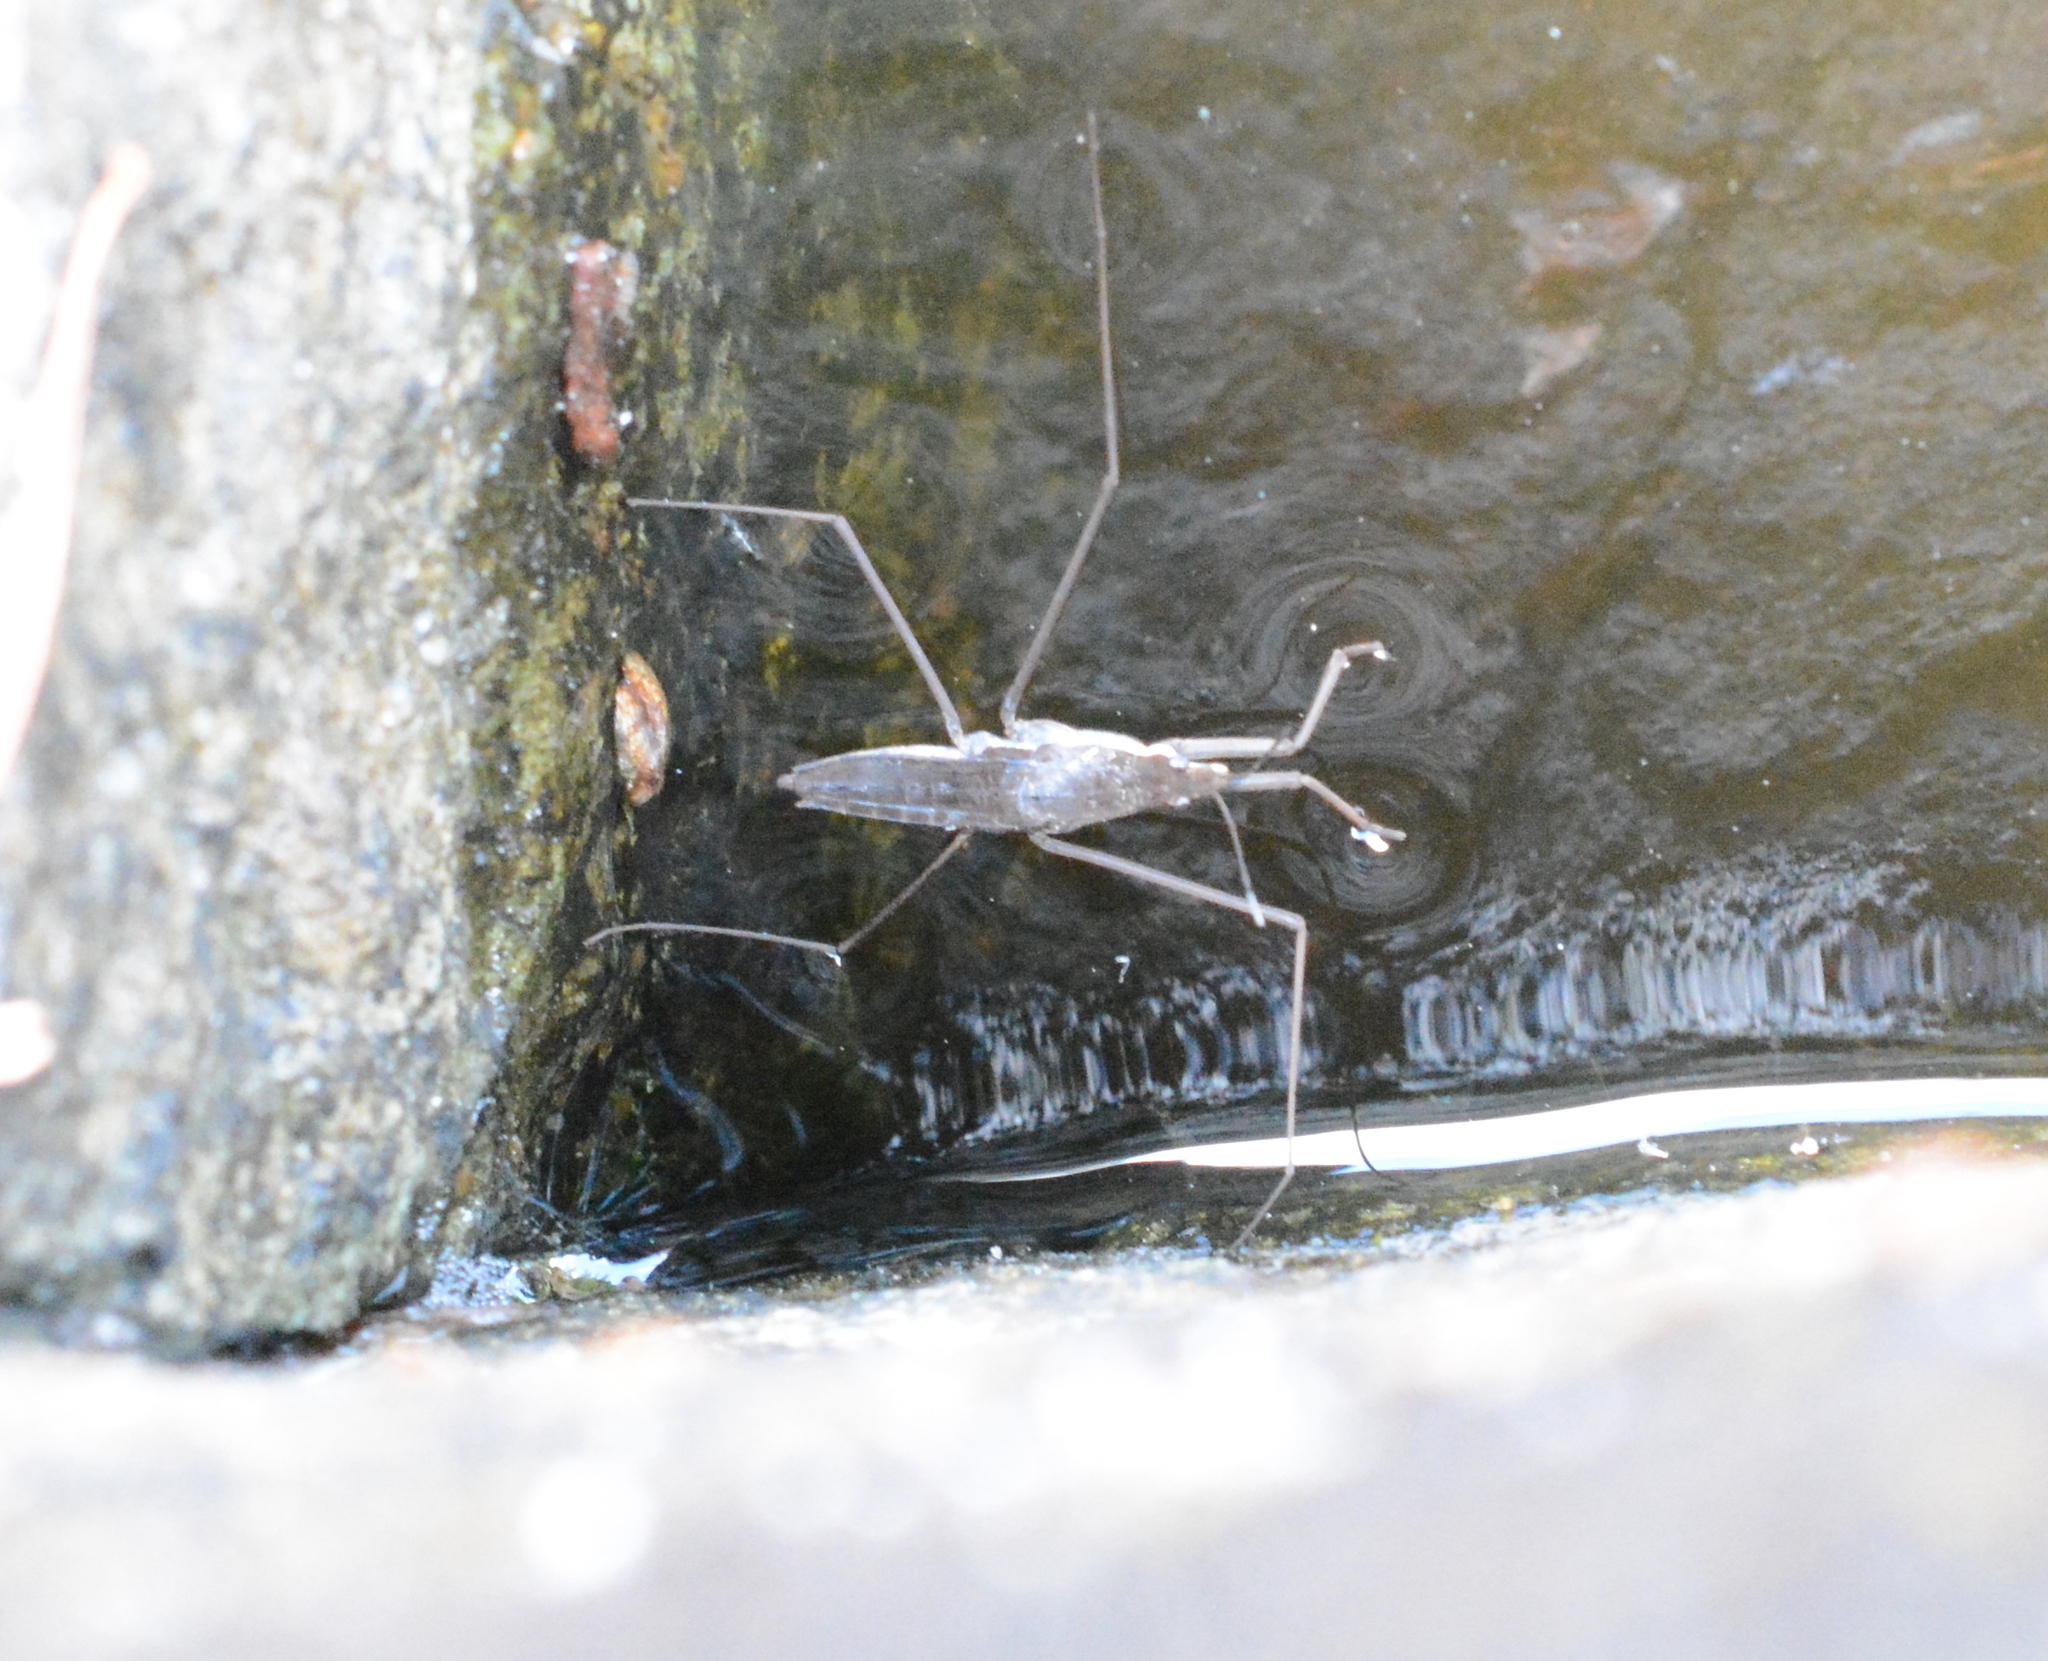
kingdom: Animalia
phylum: Arthropoda
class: Insecta
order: Hemiptera
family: Gerridae
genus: Aquarius
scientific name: Aquarius remigis
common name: Common water strider
